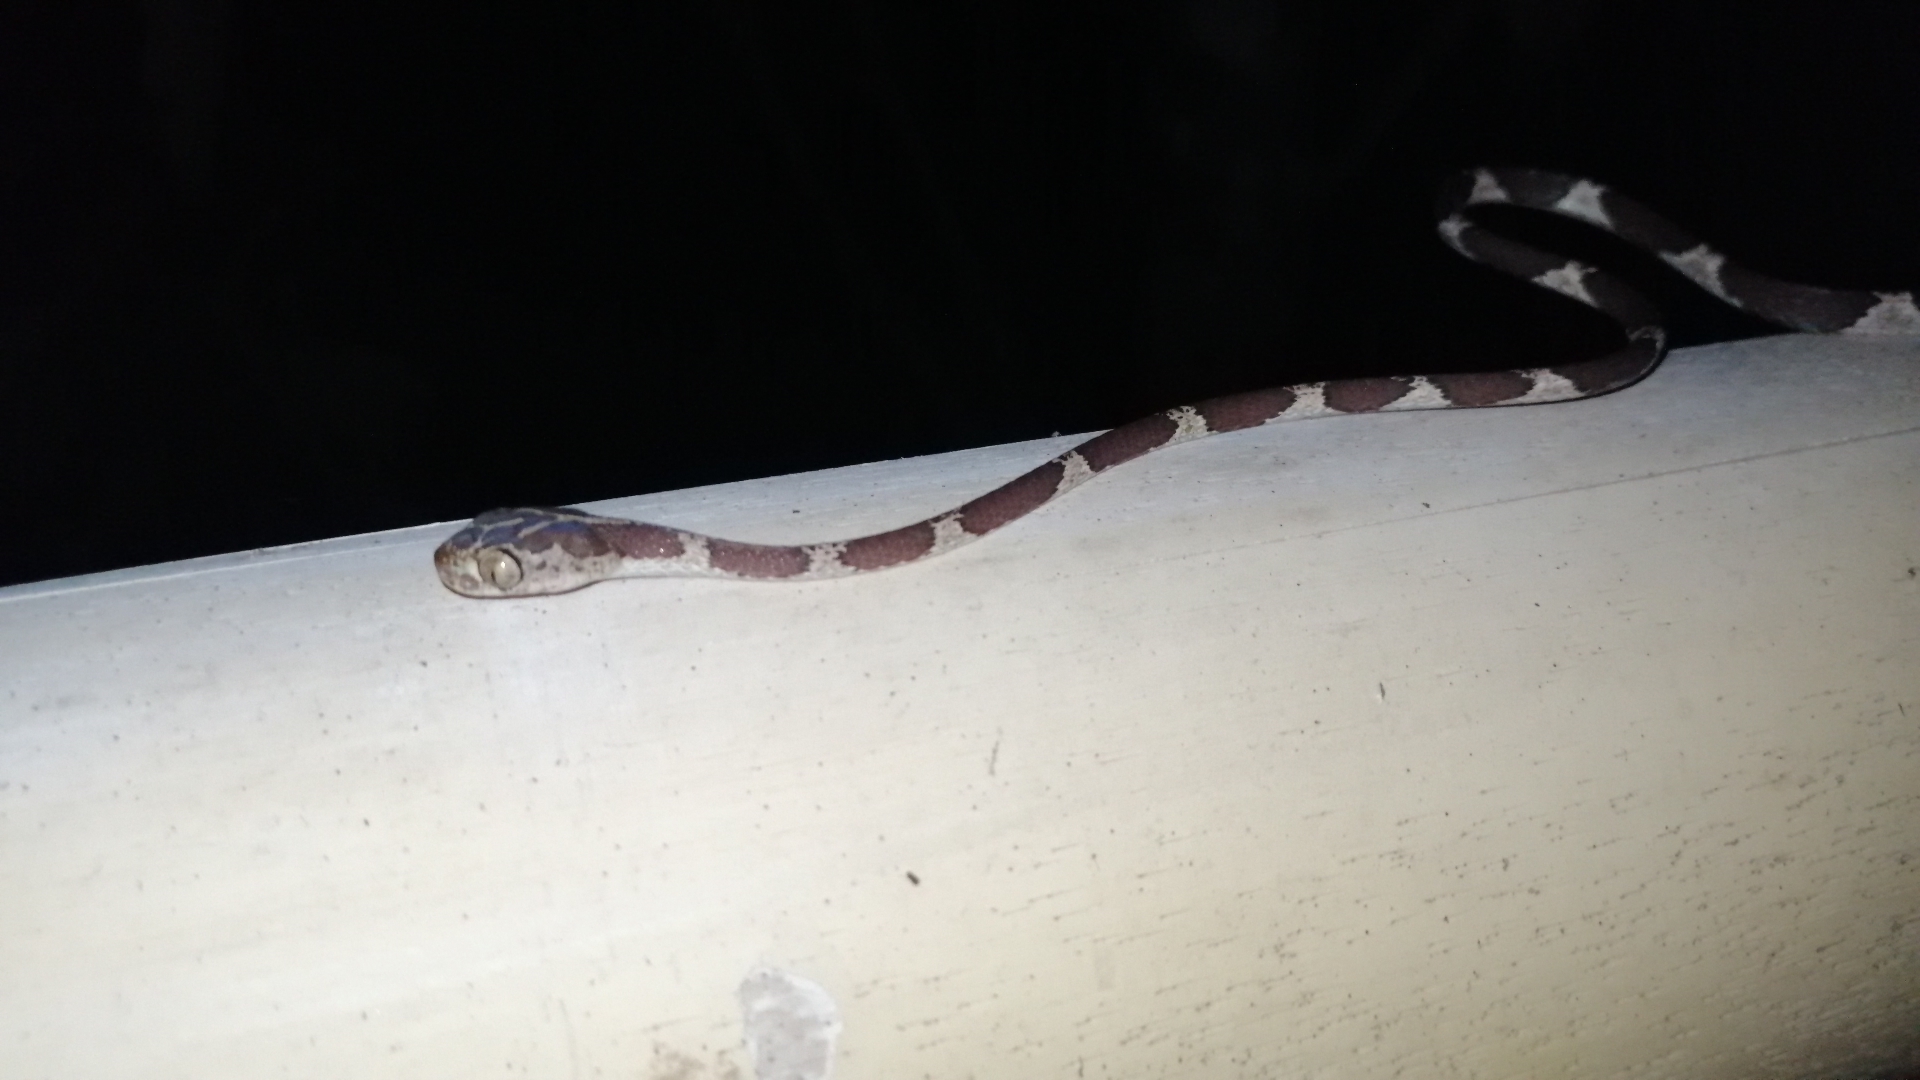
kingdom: Animalia
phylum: Chordata
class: Squamata
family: Colubridae
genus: Imantodes
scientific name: Imantodes cenchoa
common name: Blunthead tree snake
